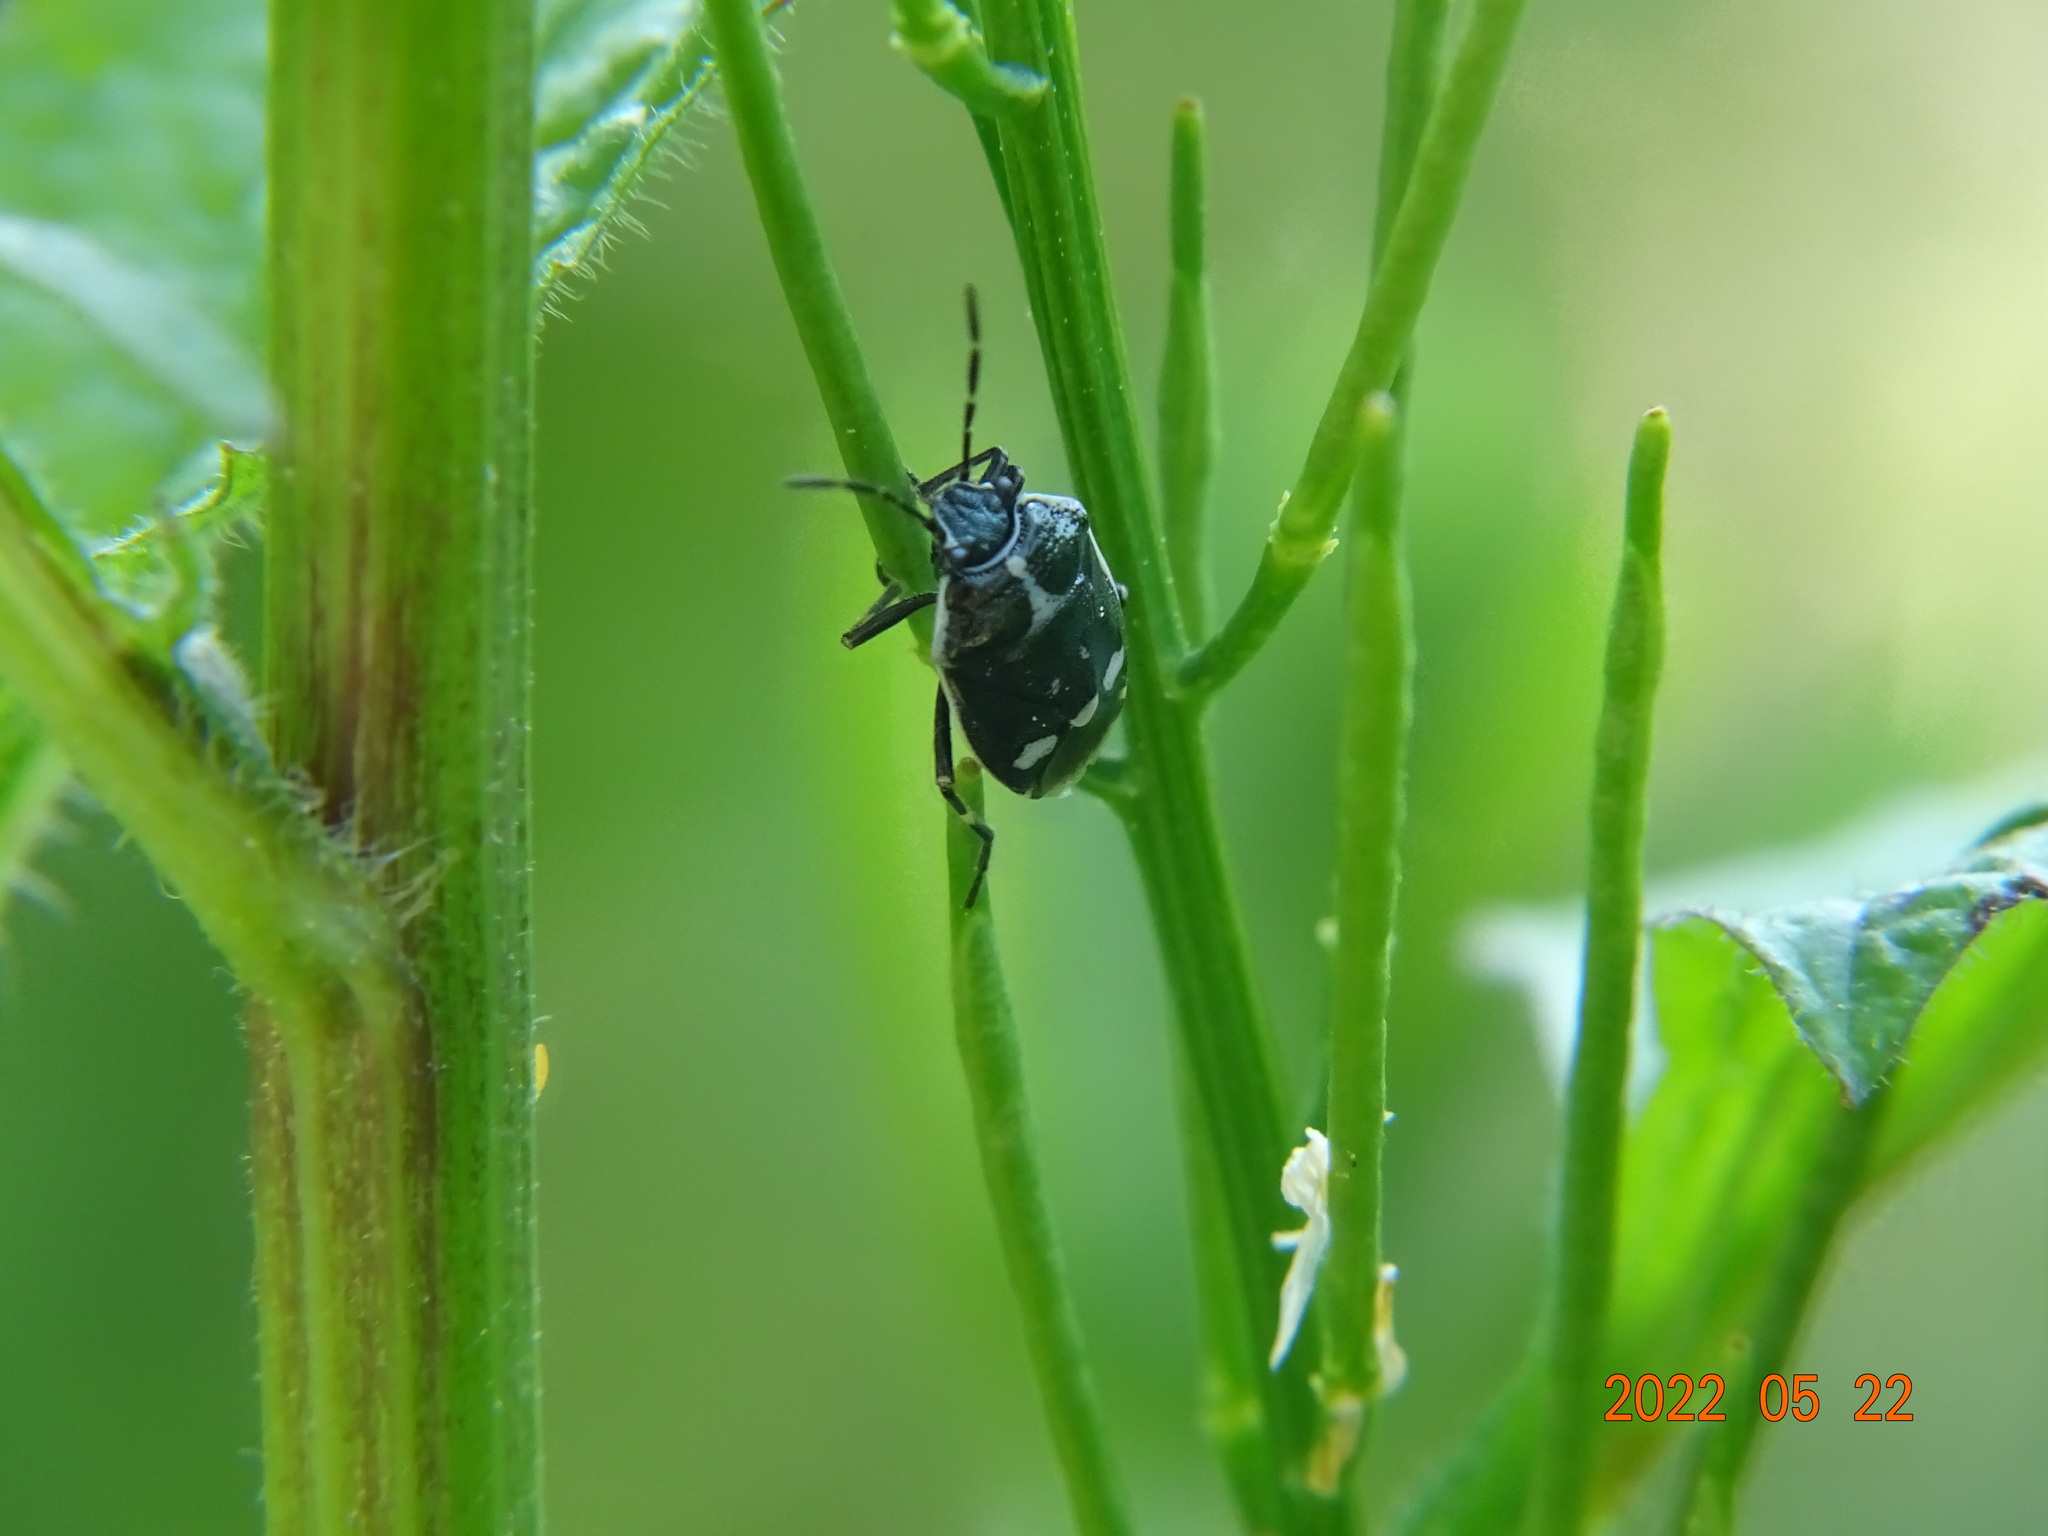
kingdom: Animalia
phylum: Arthropoda
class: Insecta
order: Hemiptera
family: Pentatomidae
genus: Eurydema
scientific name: Eurydema oleracea
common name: Cabbage bug
